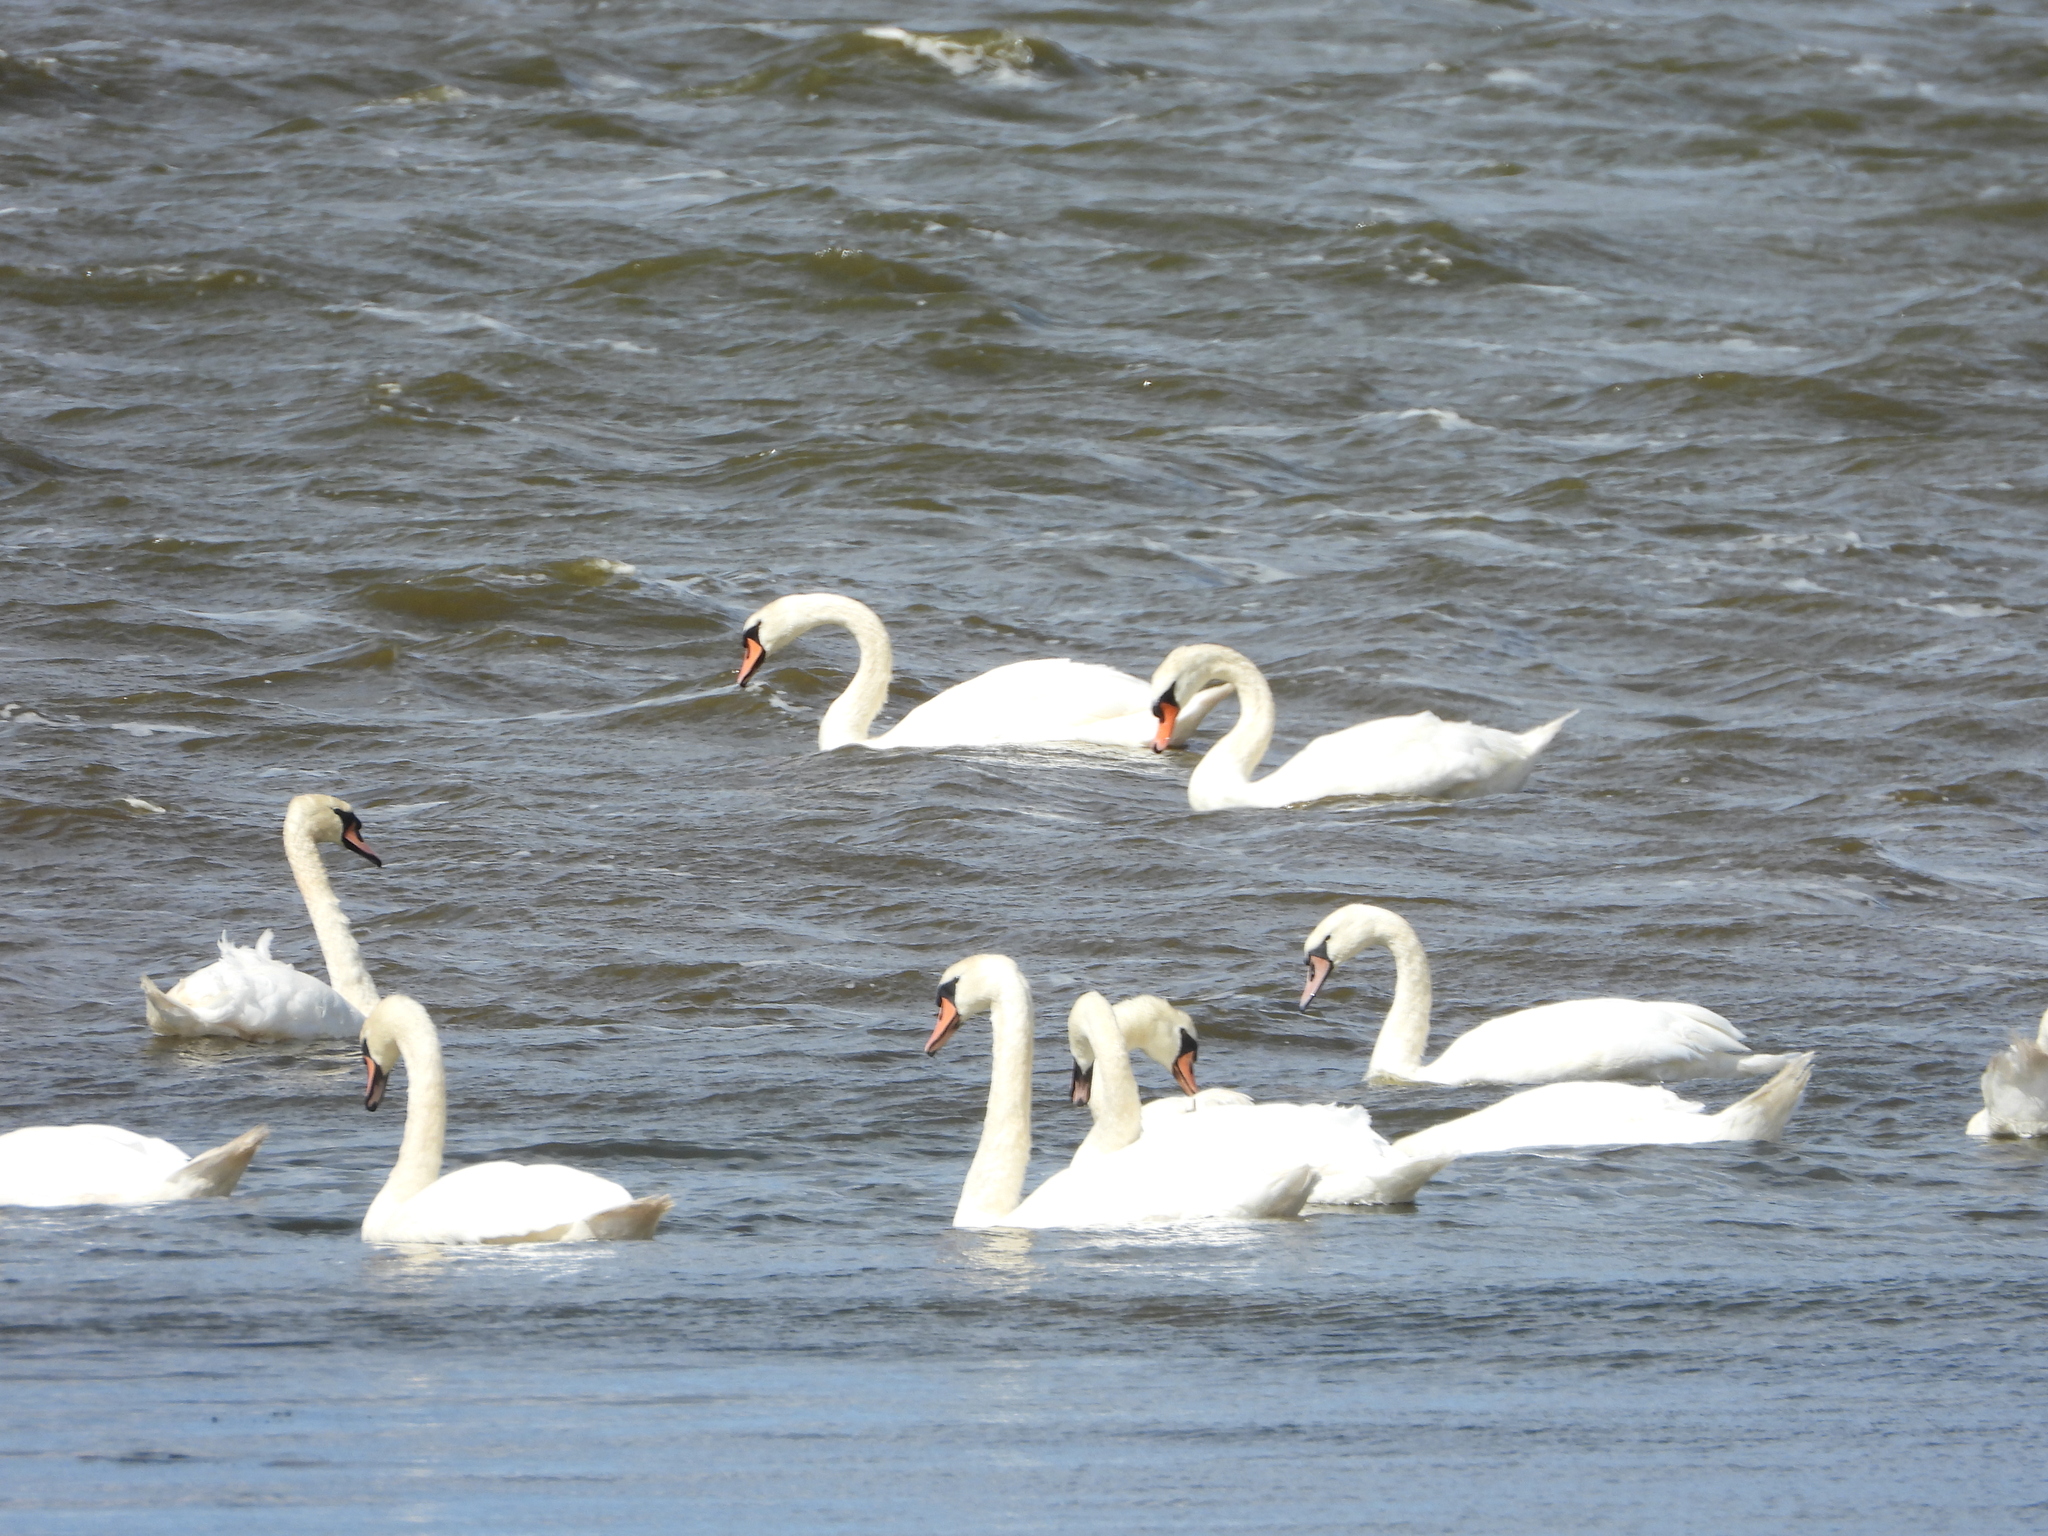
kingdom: Animalia
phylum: Chordata
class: Aves
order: Anseriformes
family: Anatidae
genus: Cygnus
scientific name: Cygnus olor
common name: Mute swan
